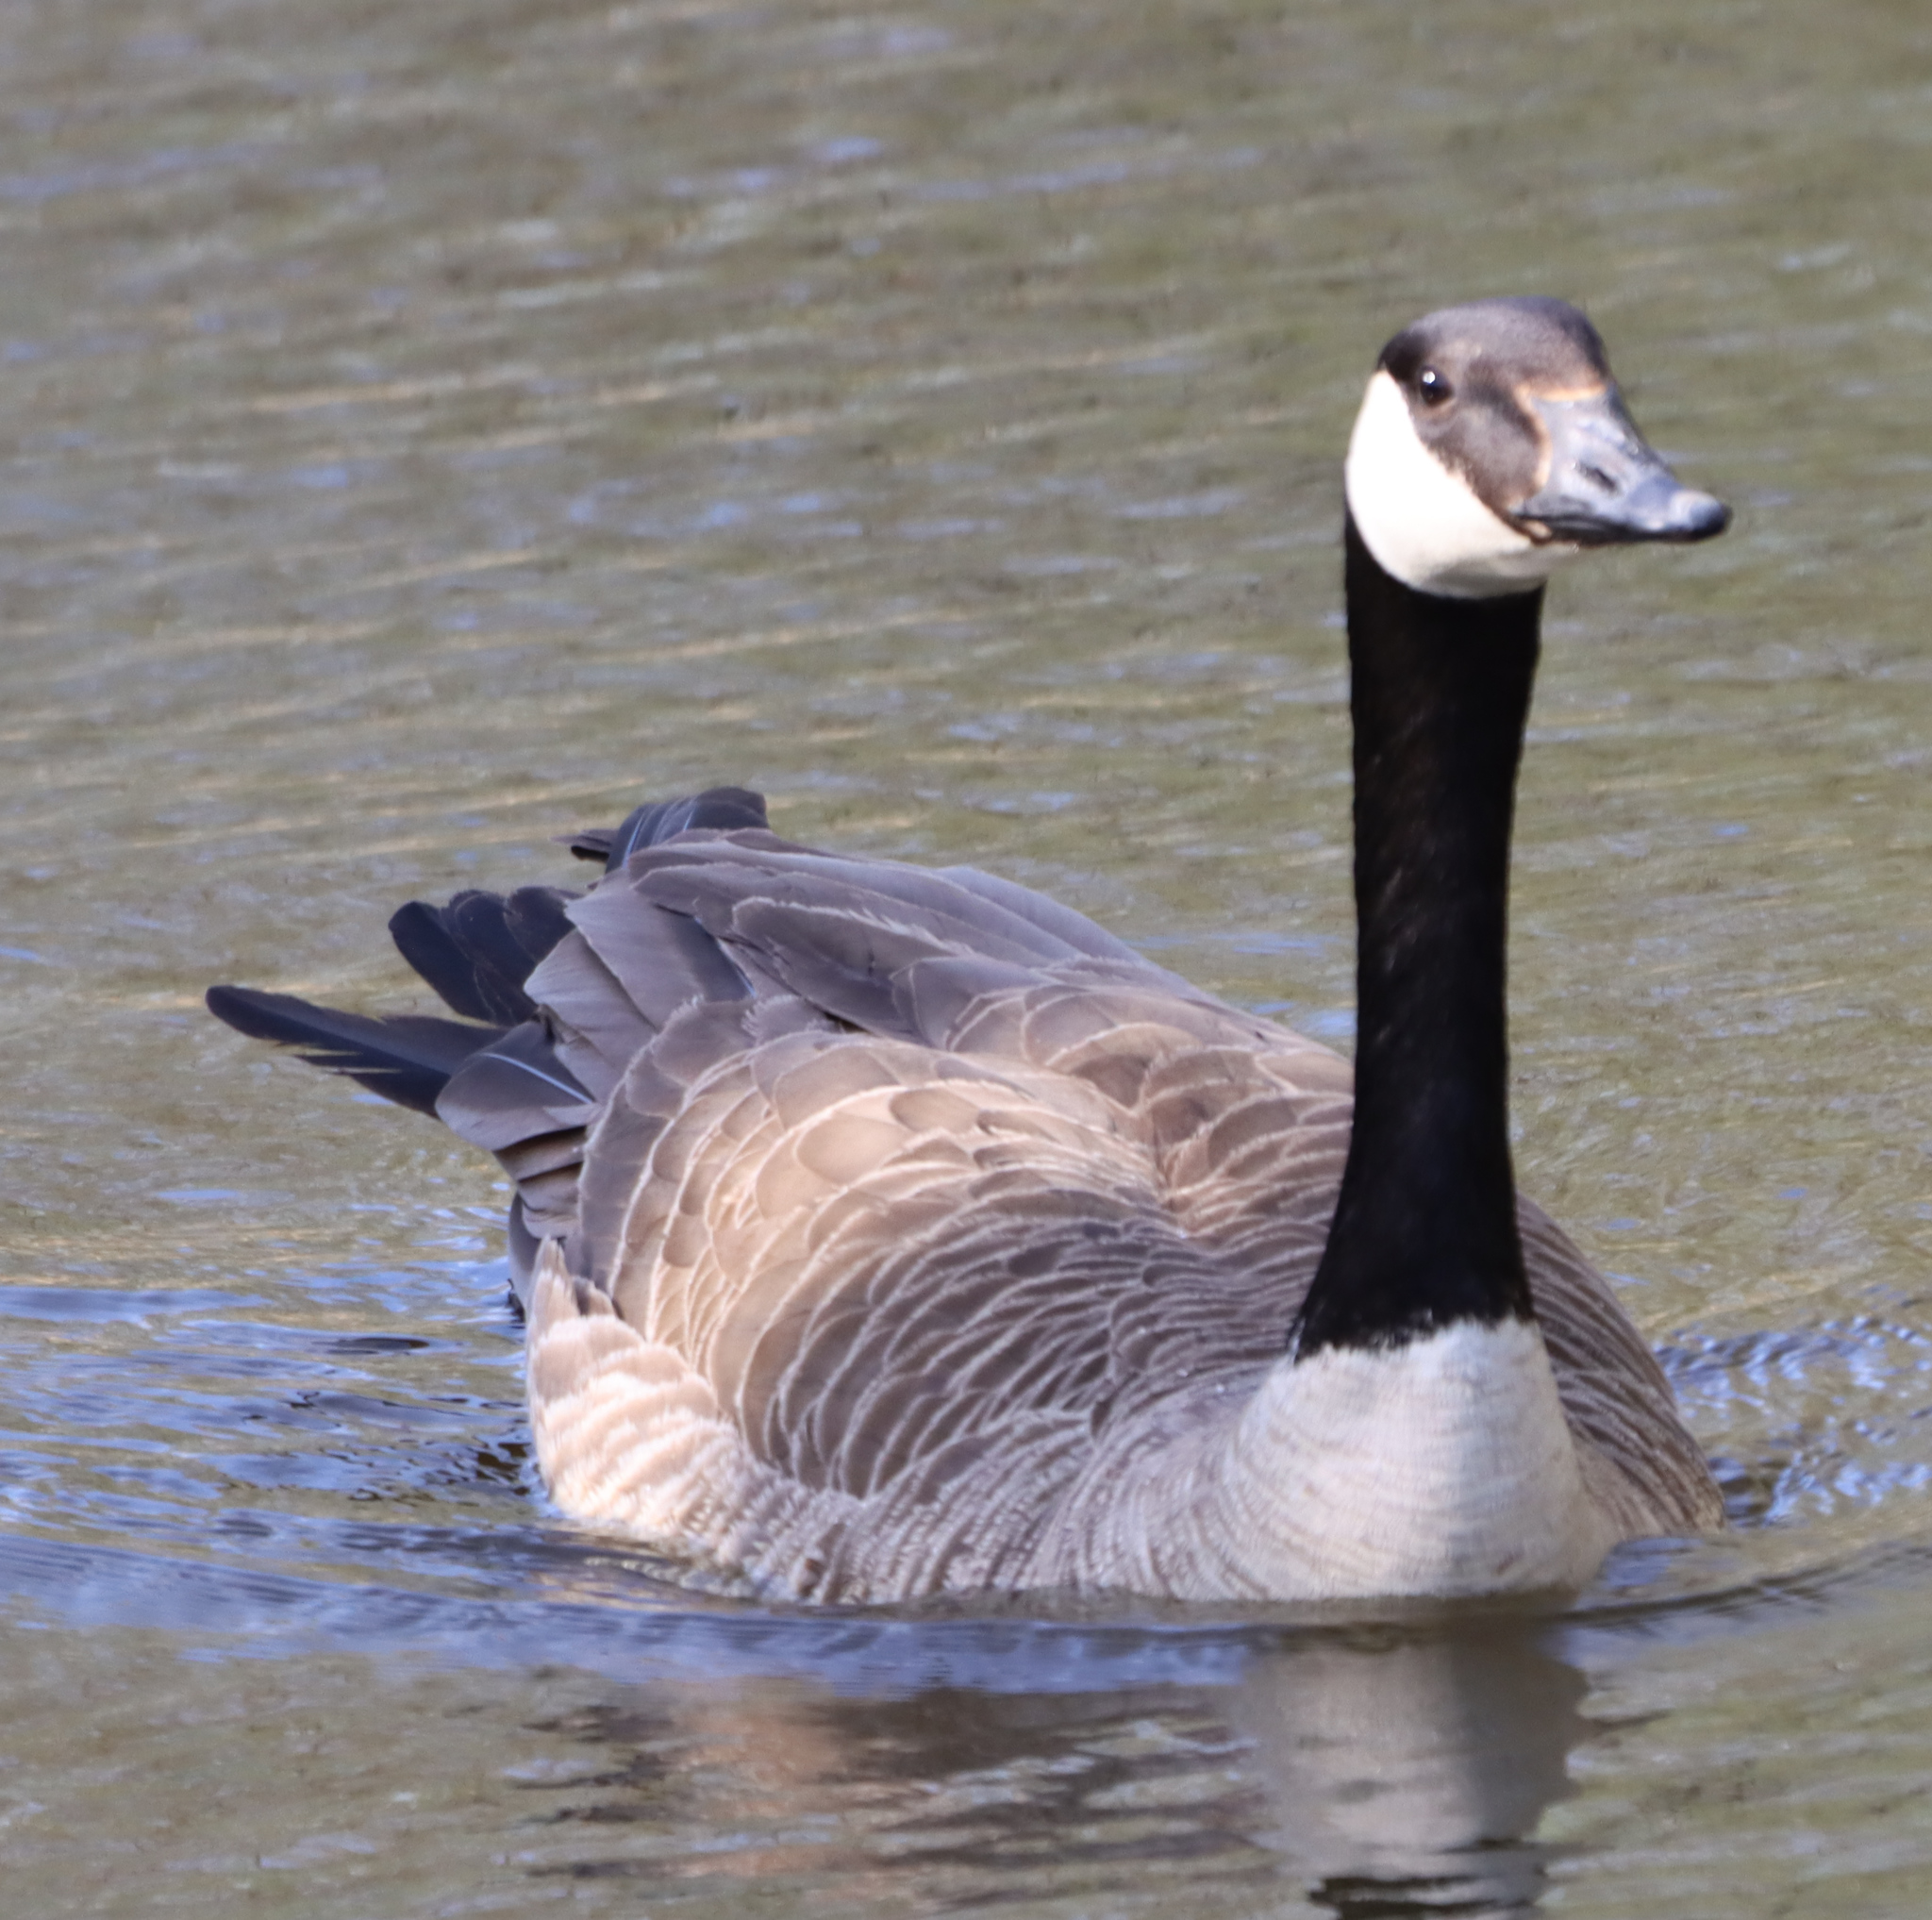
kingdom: Animalia
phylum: Chordata
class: Aves
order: Anseriformes
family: Anatidae
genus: Branta
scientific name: Branta canadensis
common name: Canada goose
